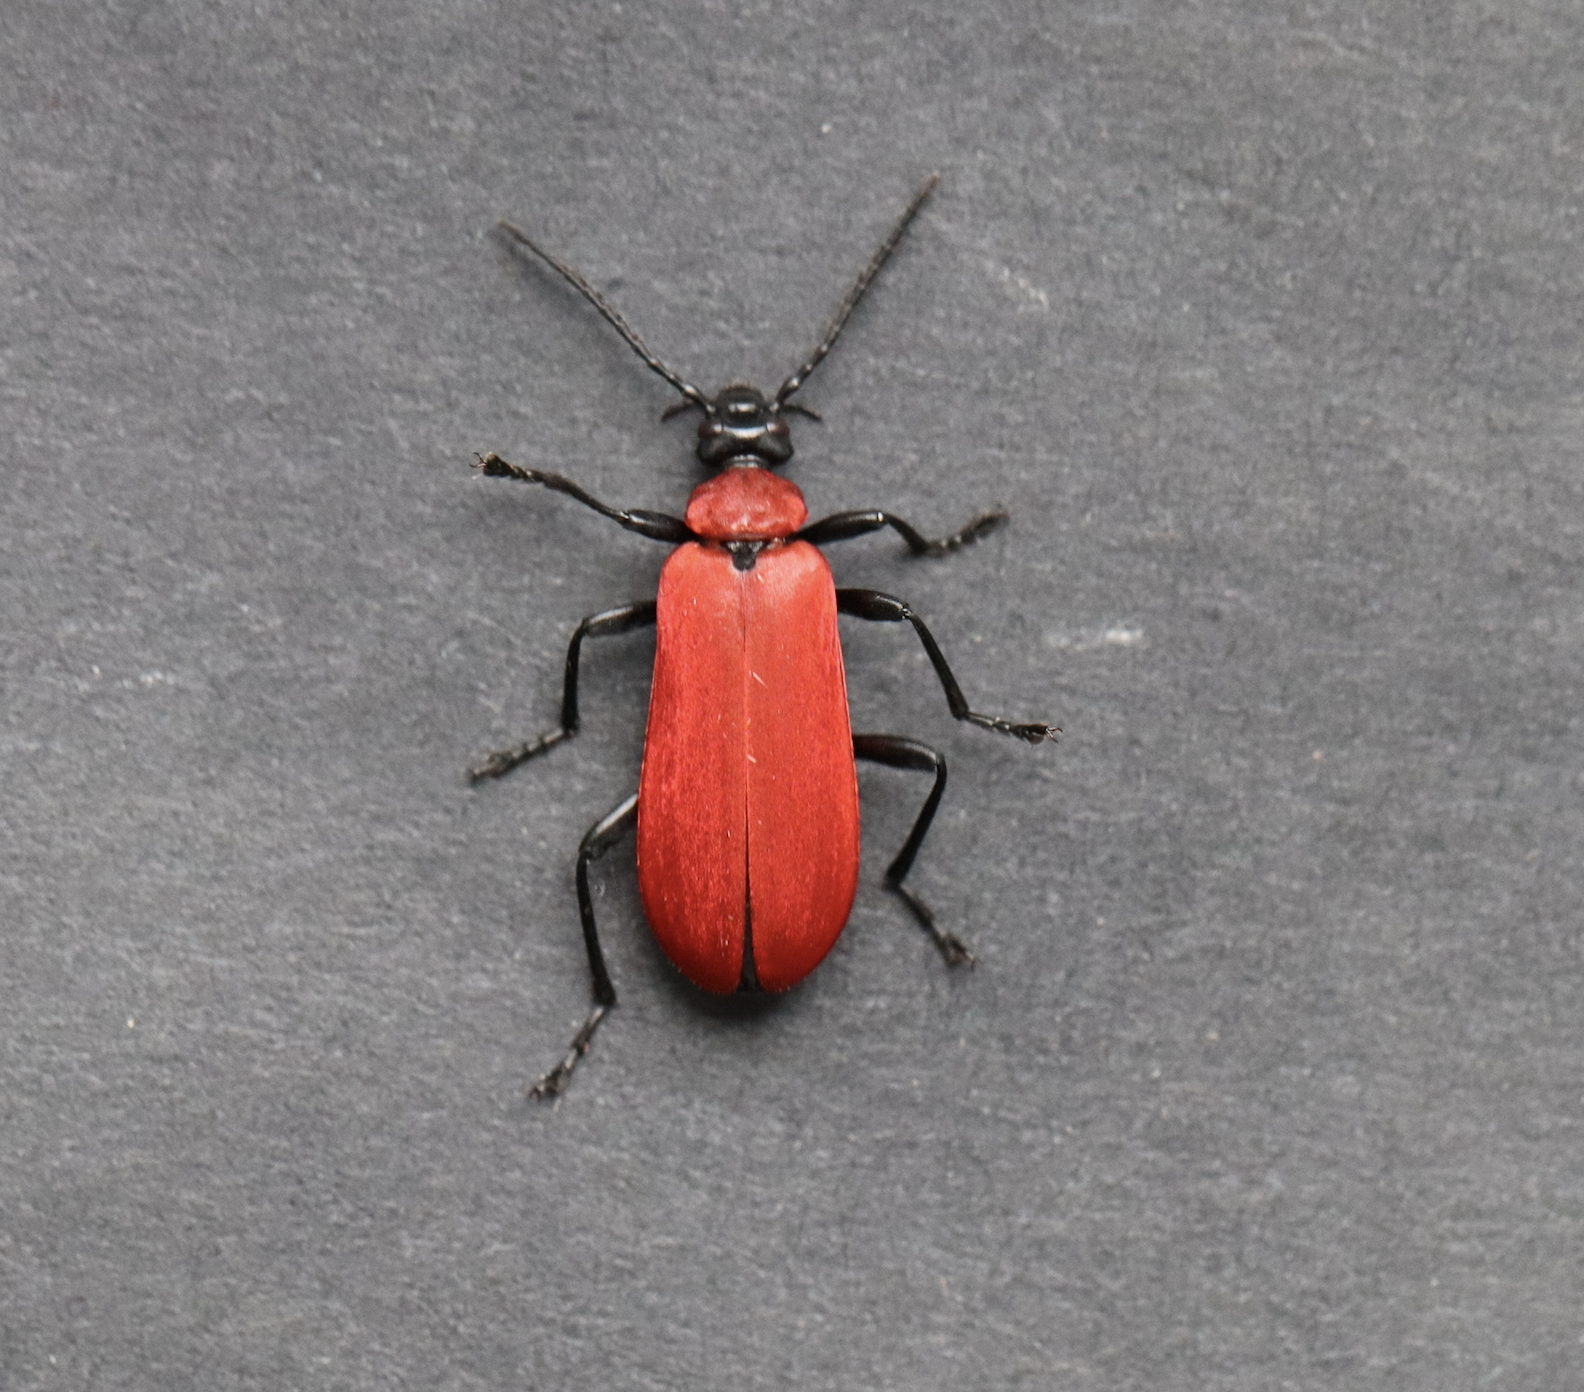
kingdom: Animalia
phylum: Arthropoda
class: Insecta
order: Coleoptera
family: Pyrochroidae
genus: Pyrochroa
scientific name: Pyrochroa coccinea
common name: Black-headed cardinal beetle
